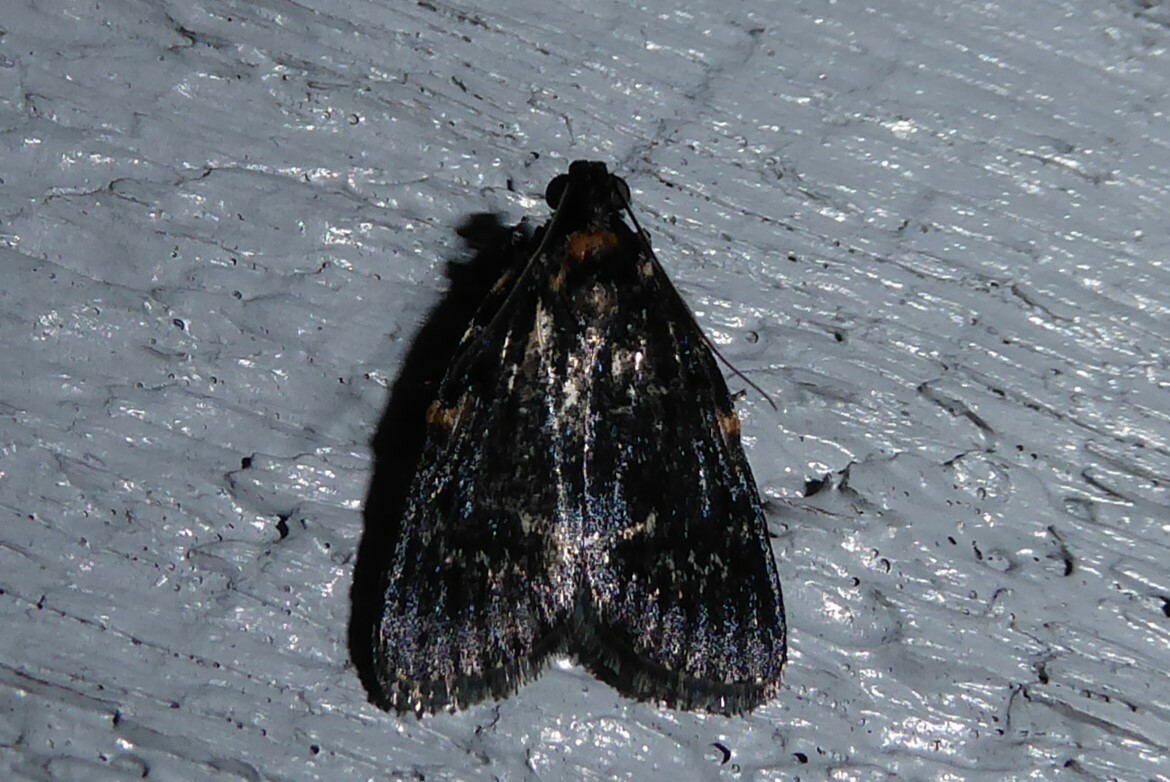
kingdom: Animalia
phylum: Arthropoda
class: Insecta
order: Lepidoptera
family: Pyralidae
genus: Stericta
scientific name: Stericta carbonalis
